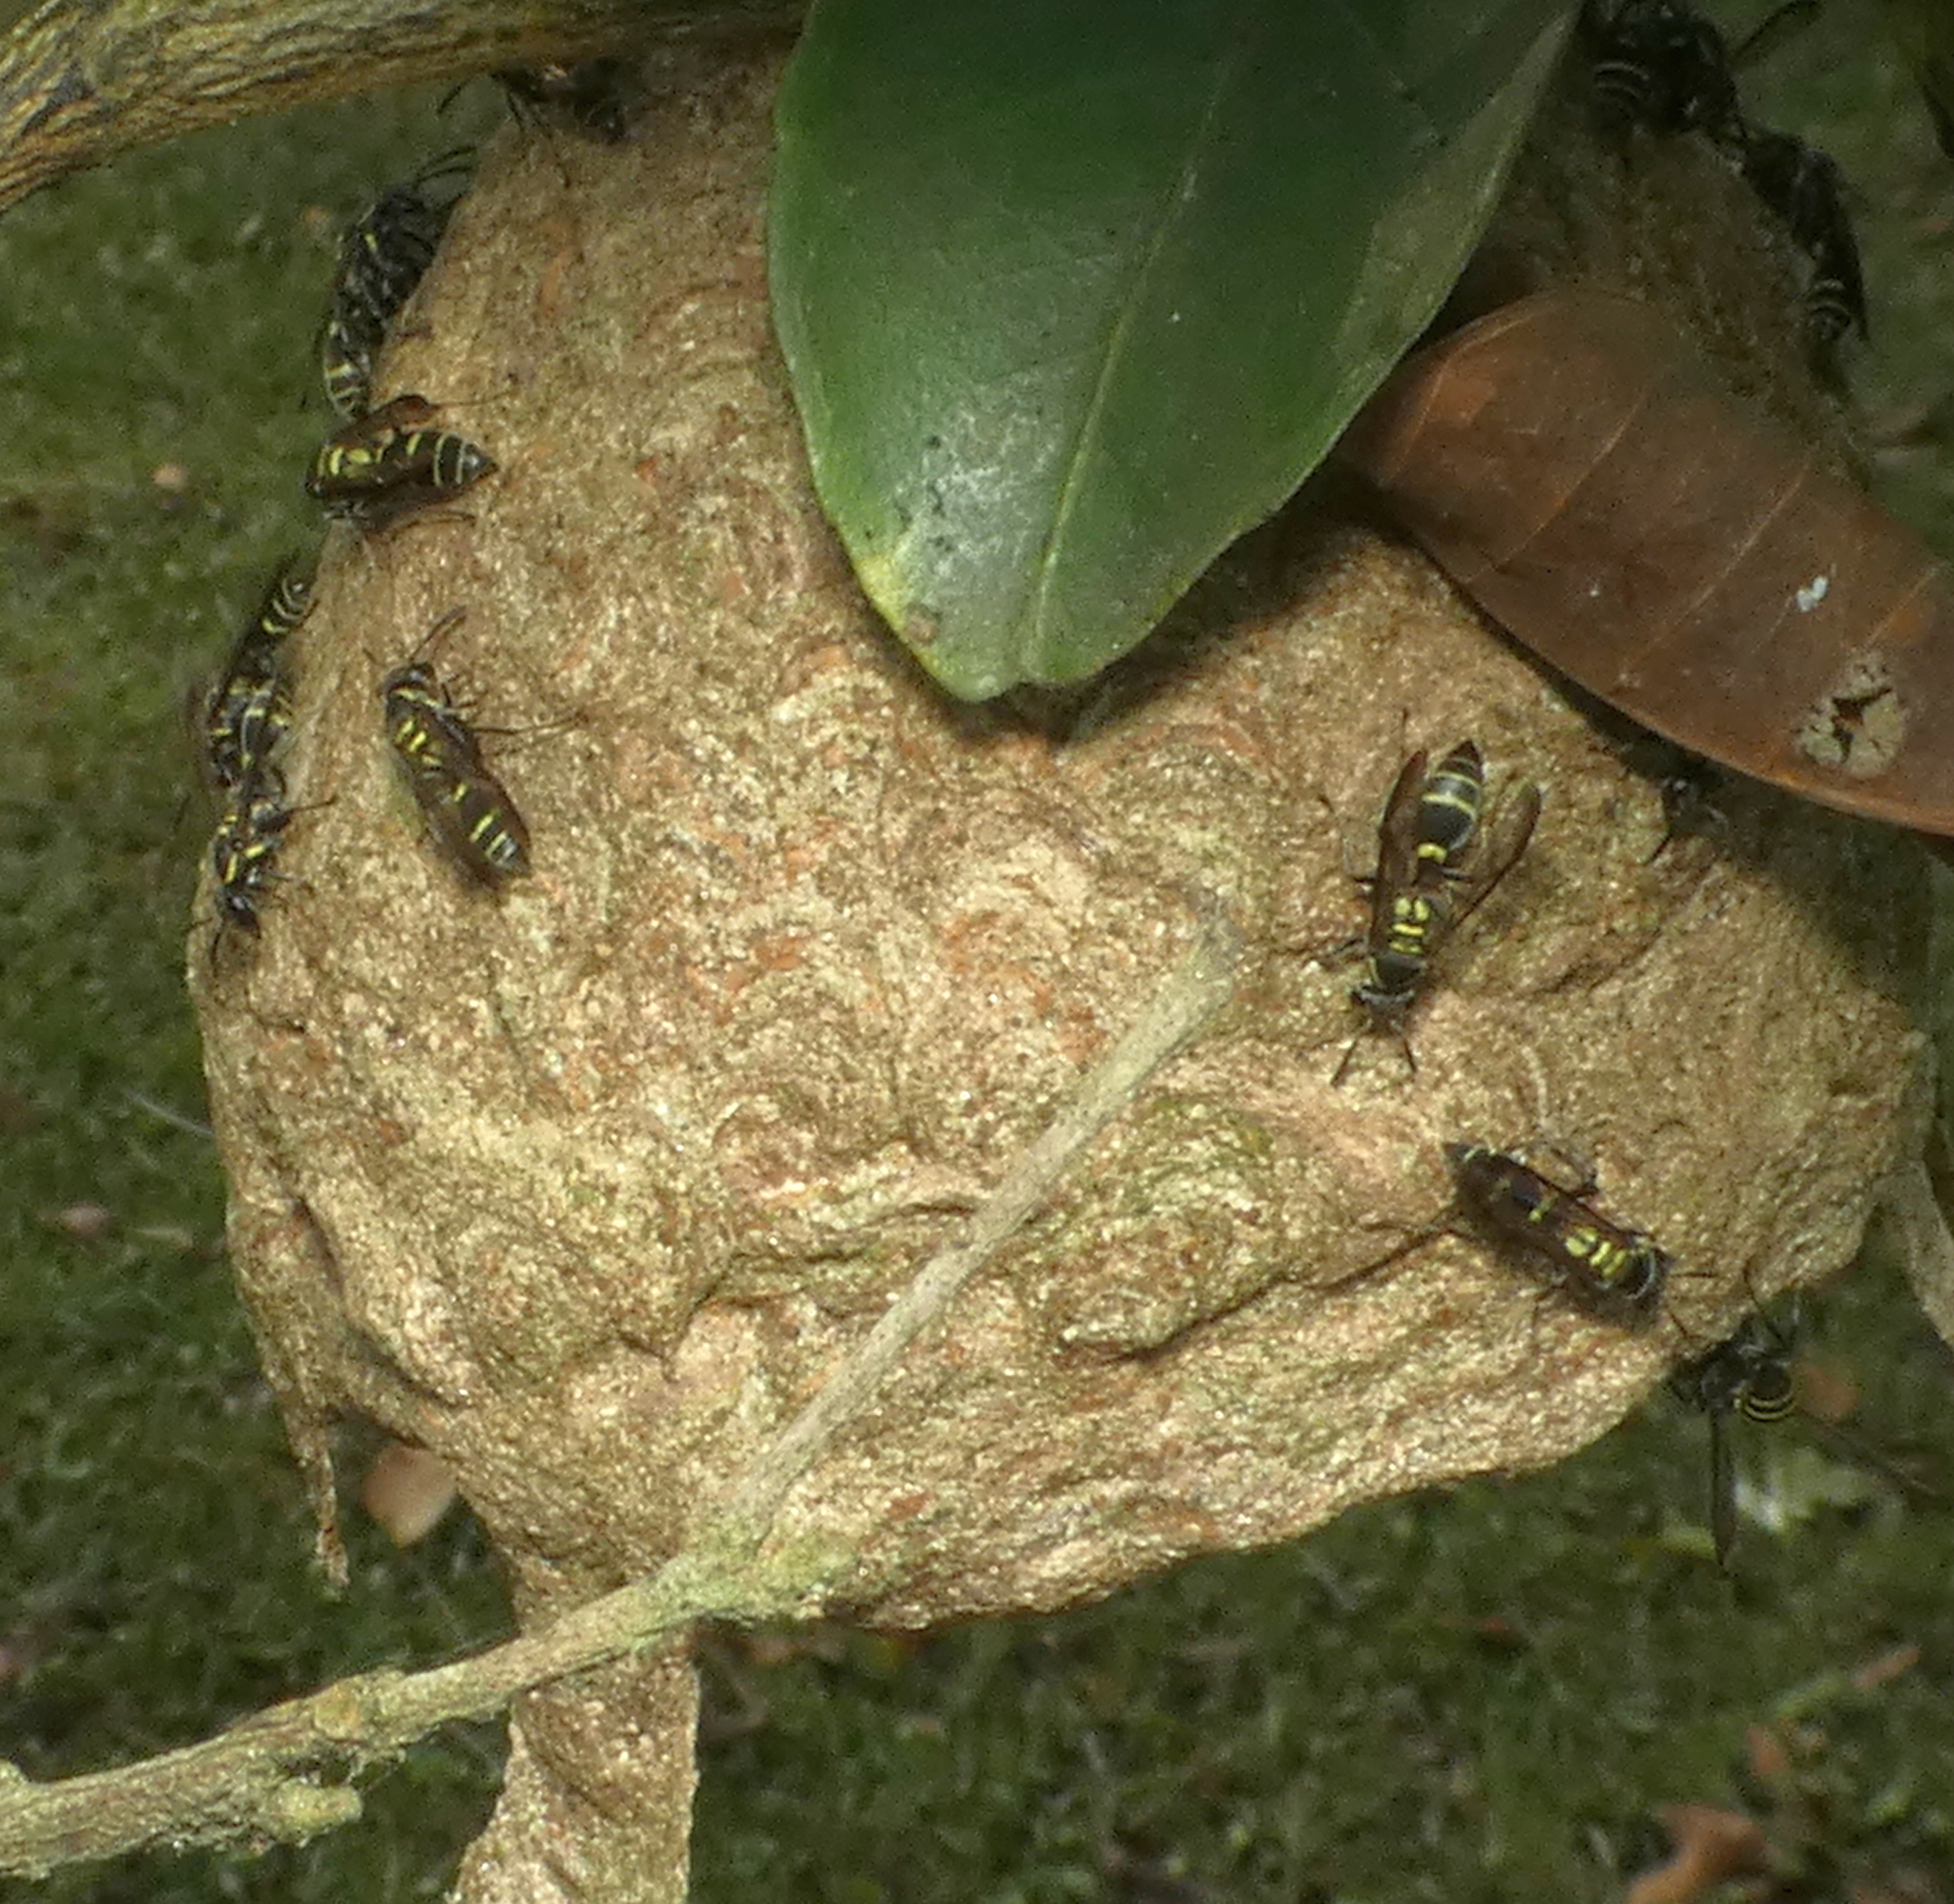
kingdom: Animalia
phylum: Arthropoda
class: Insecta
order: Hymenoptera
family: Eumenidae
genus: Polybia
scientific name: Polybia occidentalis
